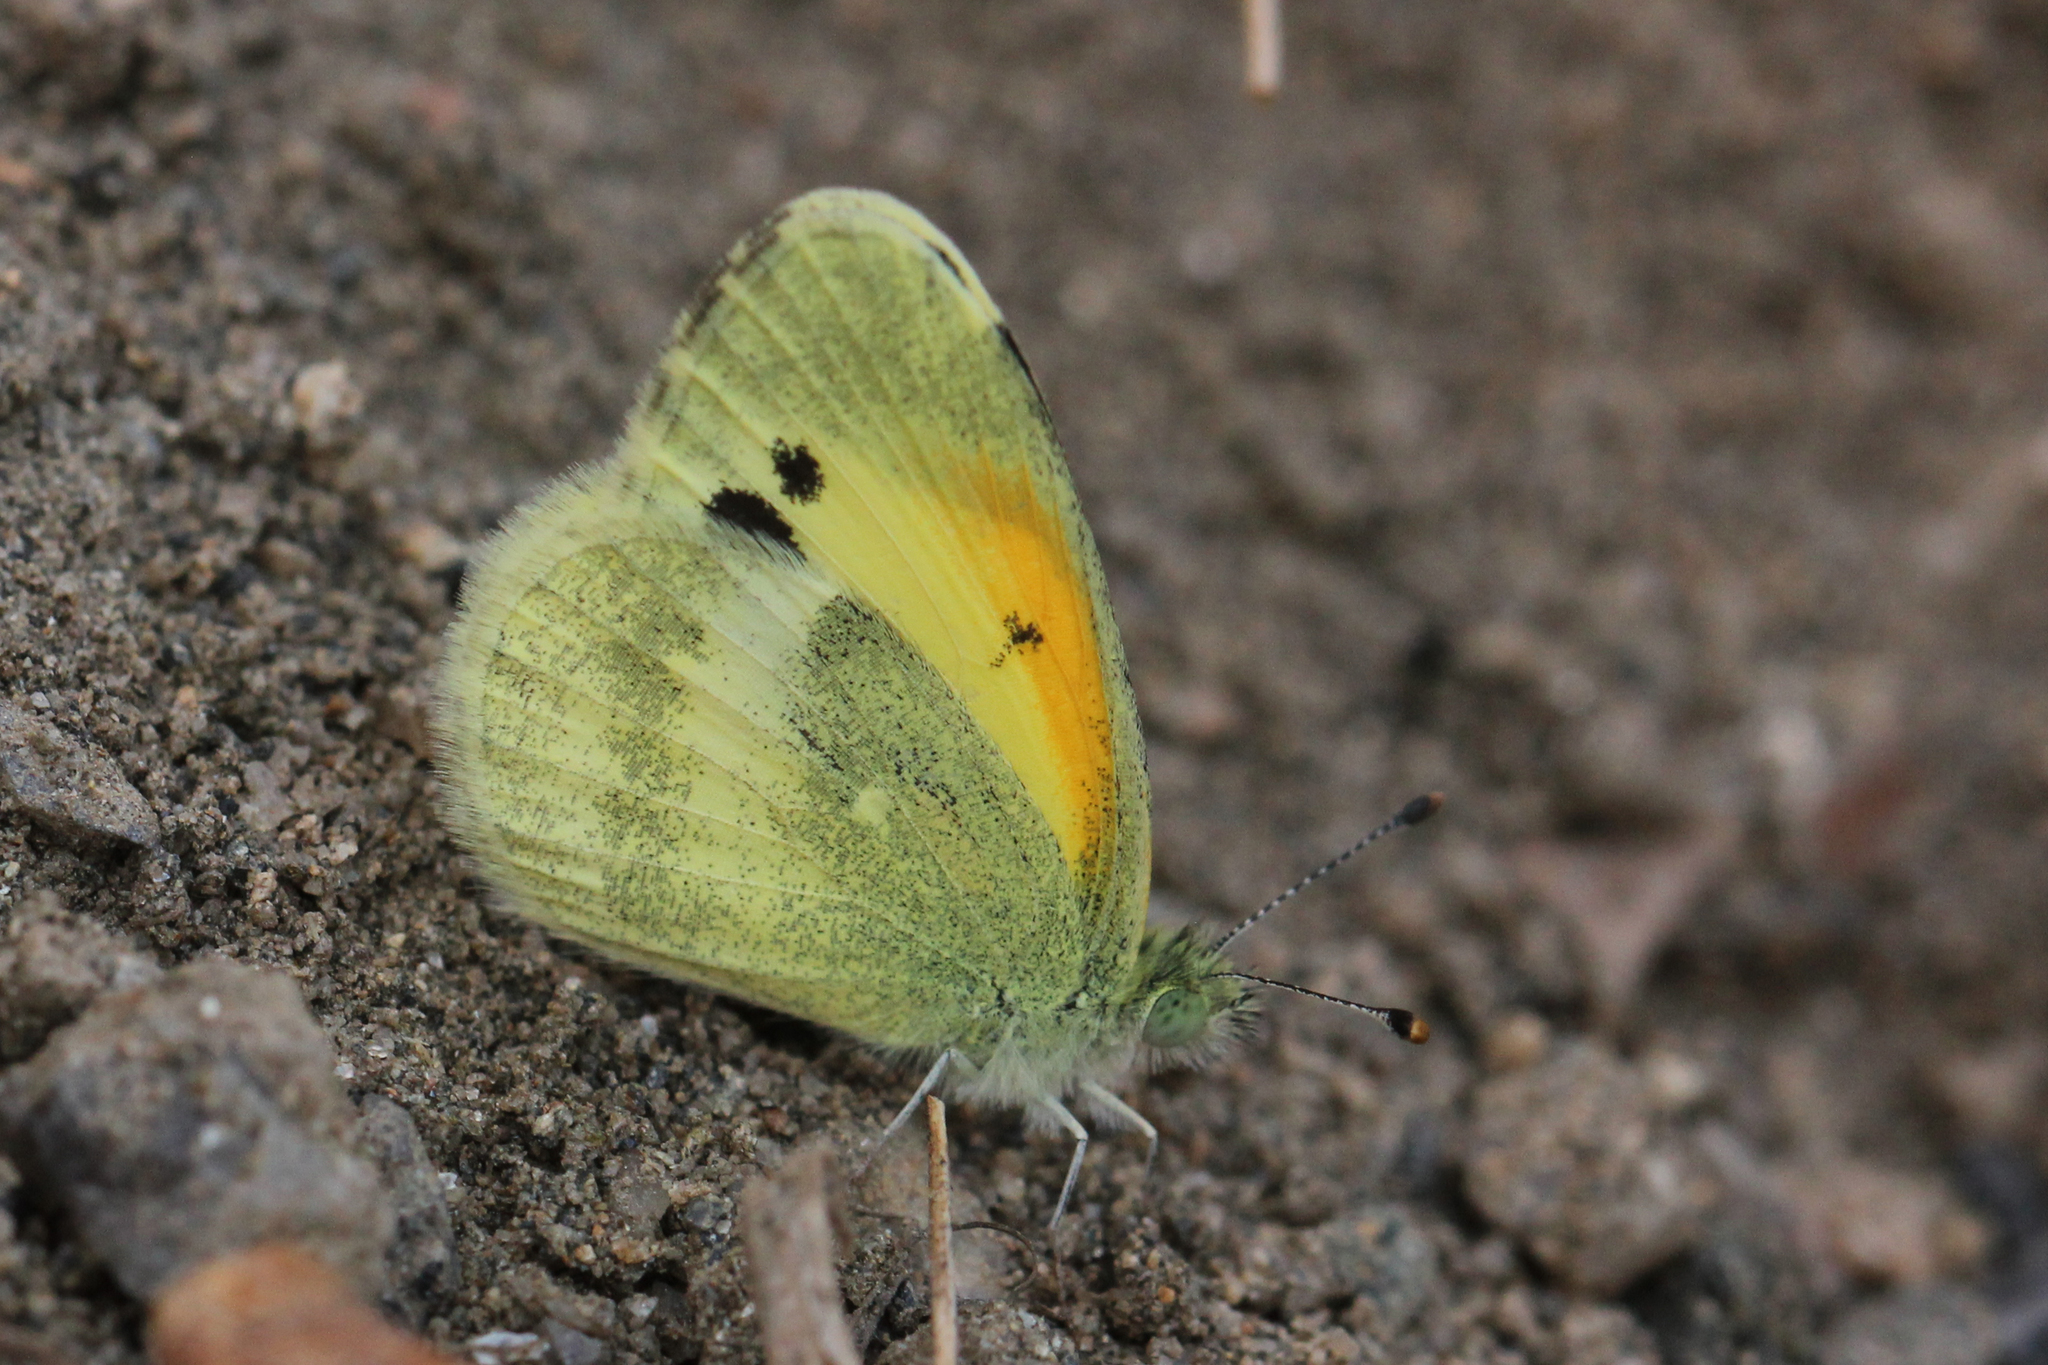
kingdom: Animalia
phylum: Arthropoda
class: Insecta
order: Lepidoptera
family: Pieridae
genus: Nathalis
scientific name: Nathalis iole
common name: Dainty sulphur
